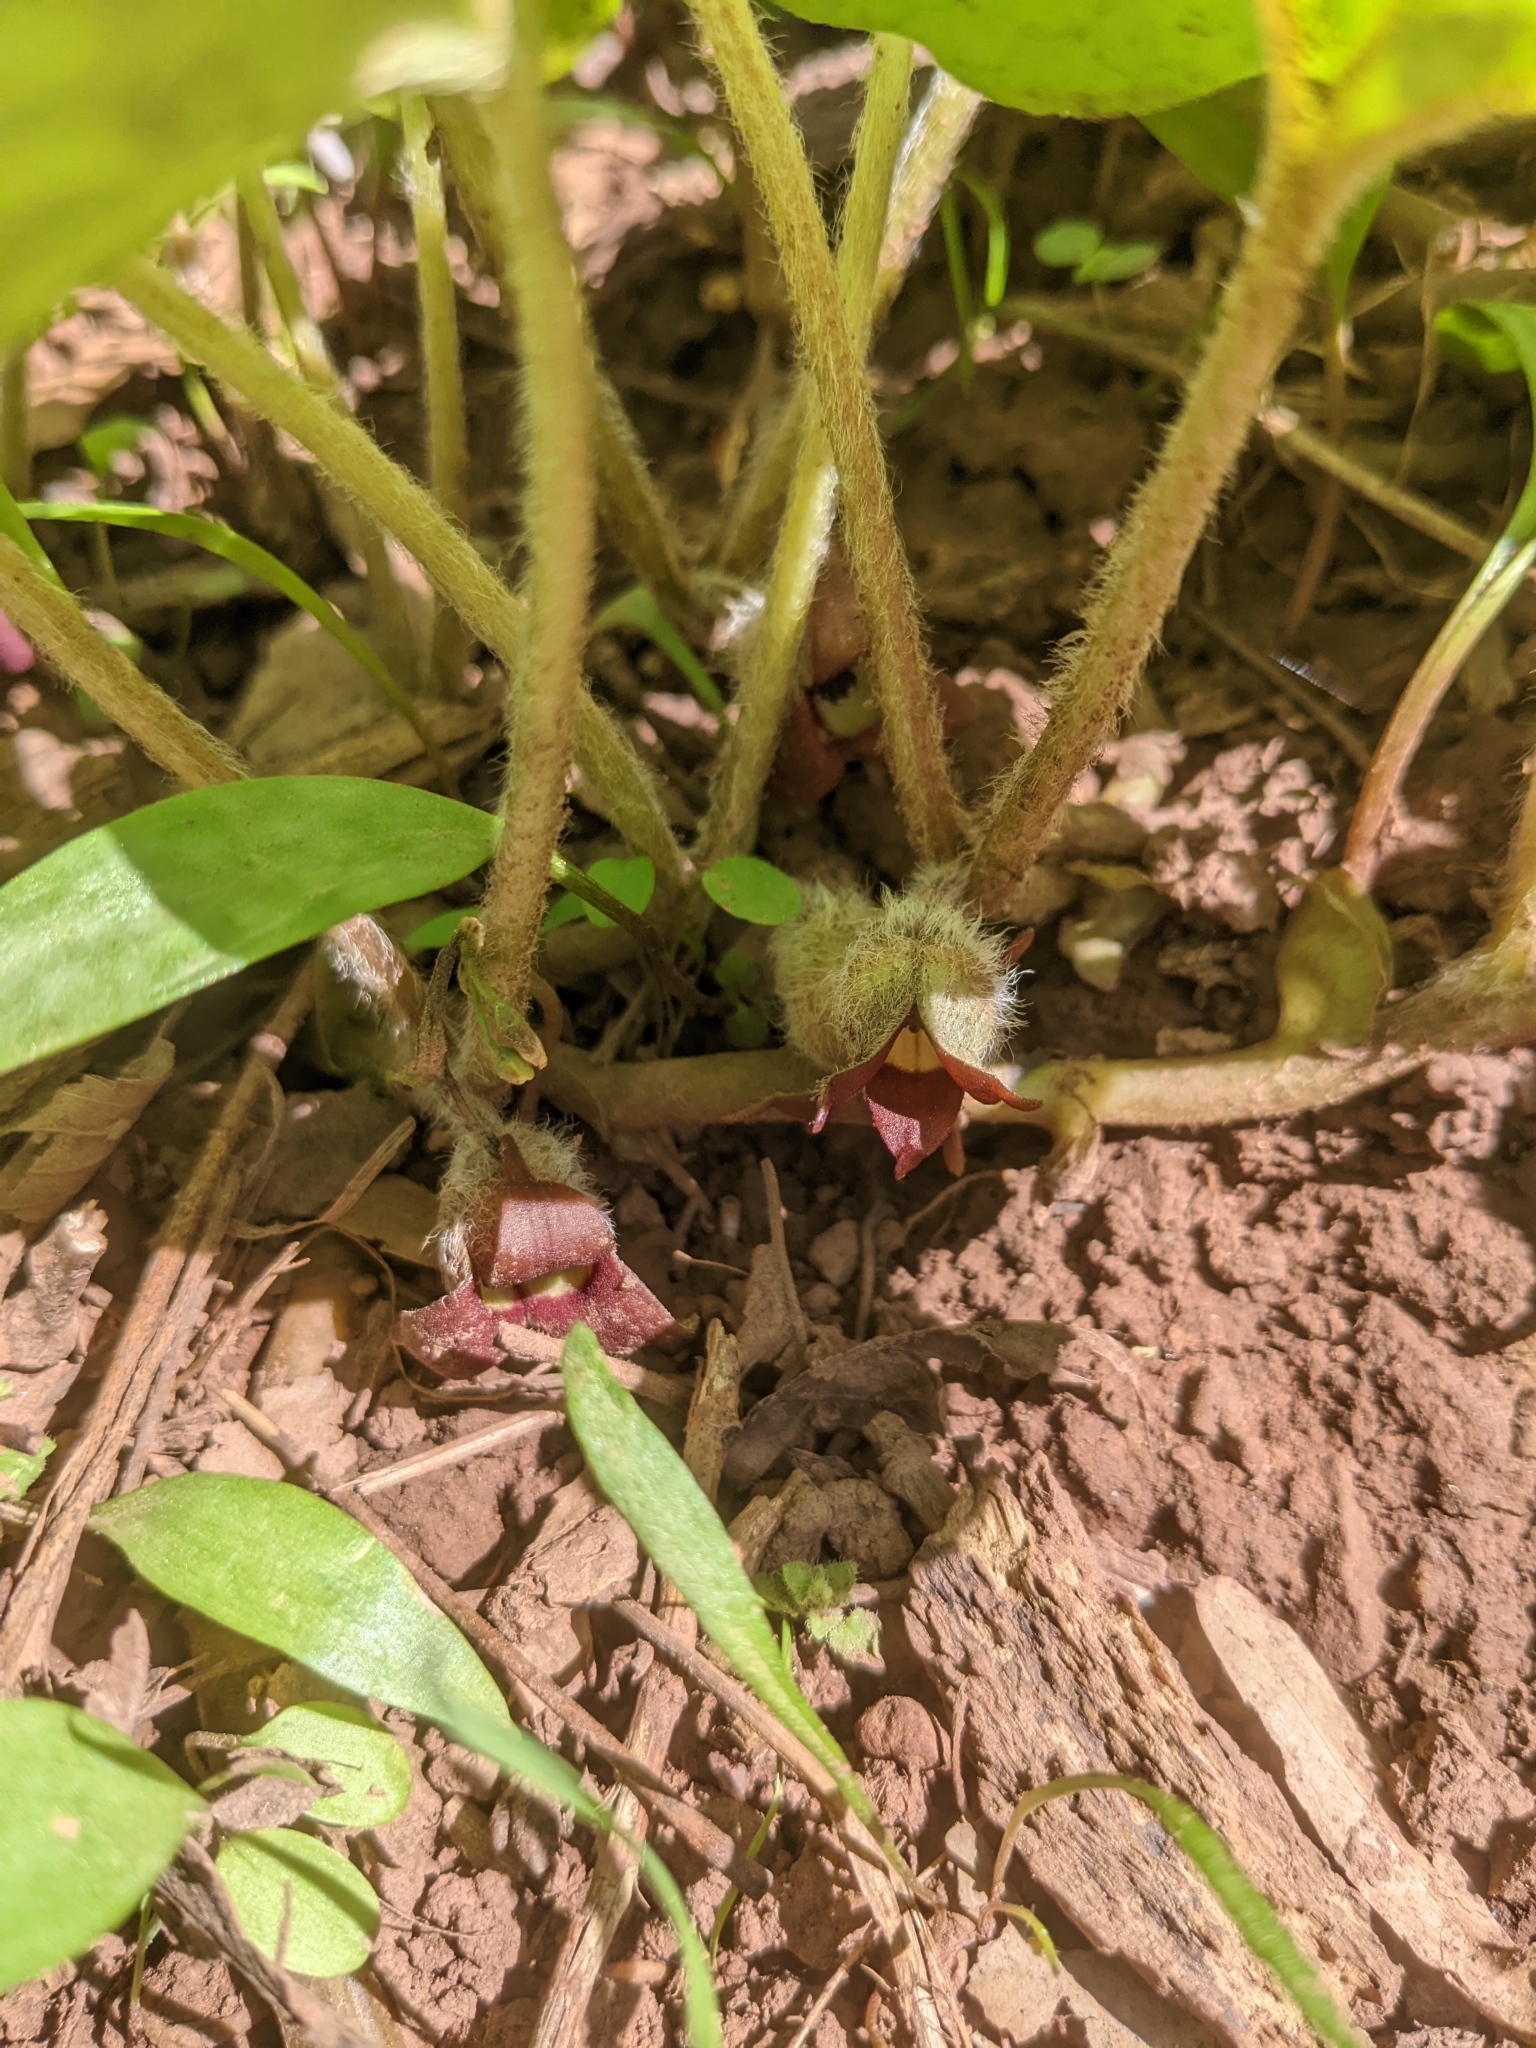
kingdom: Plantae
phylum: Tracheophyta
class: Magnoliopsida
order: Piperales
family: Aristolochiaceae
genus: Asarum
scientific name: Asarum canadense
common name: Wild ginger
